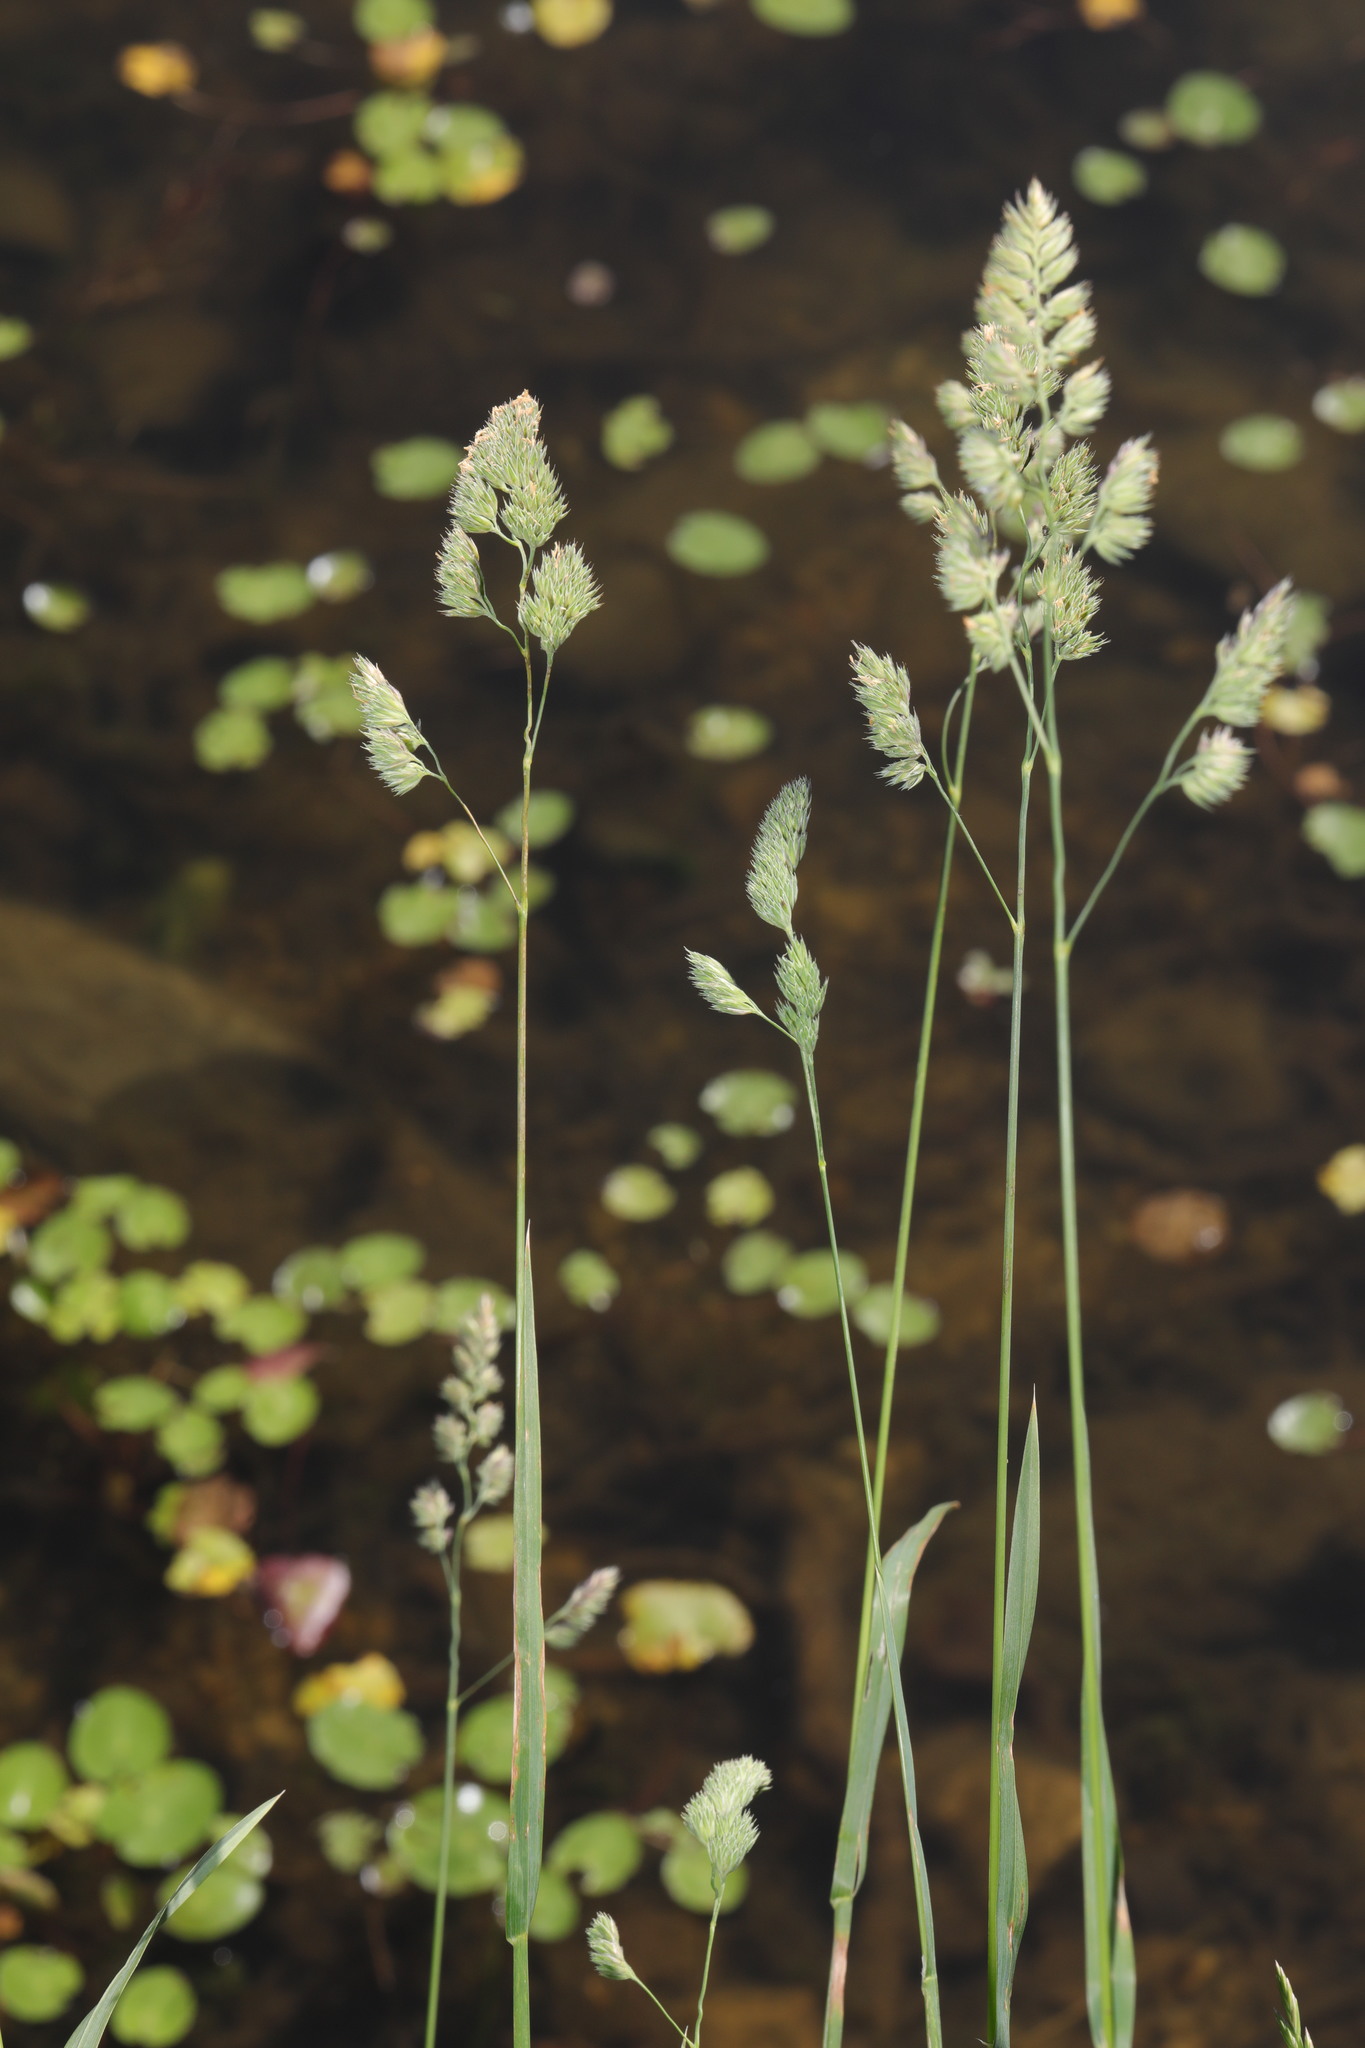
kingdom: Plantae
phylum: Tracheophyta
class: Liliopsida
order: Poales
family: Poaceae
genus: Dactylis
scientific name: Dactylis glomerata
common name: Orchardgrass
